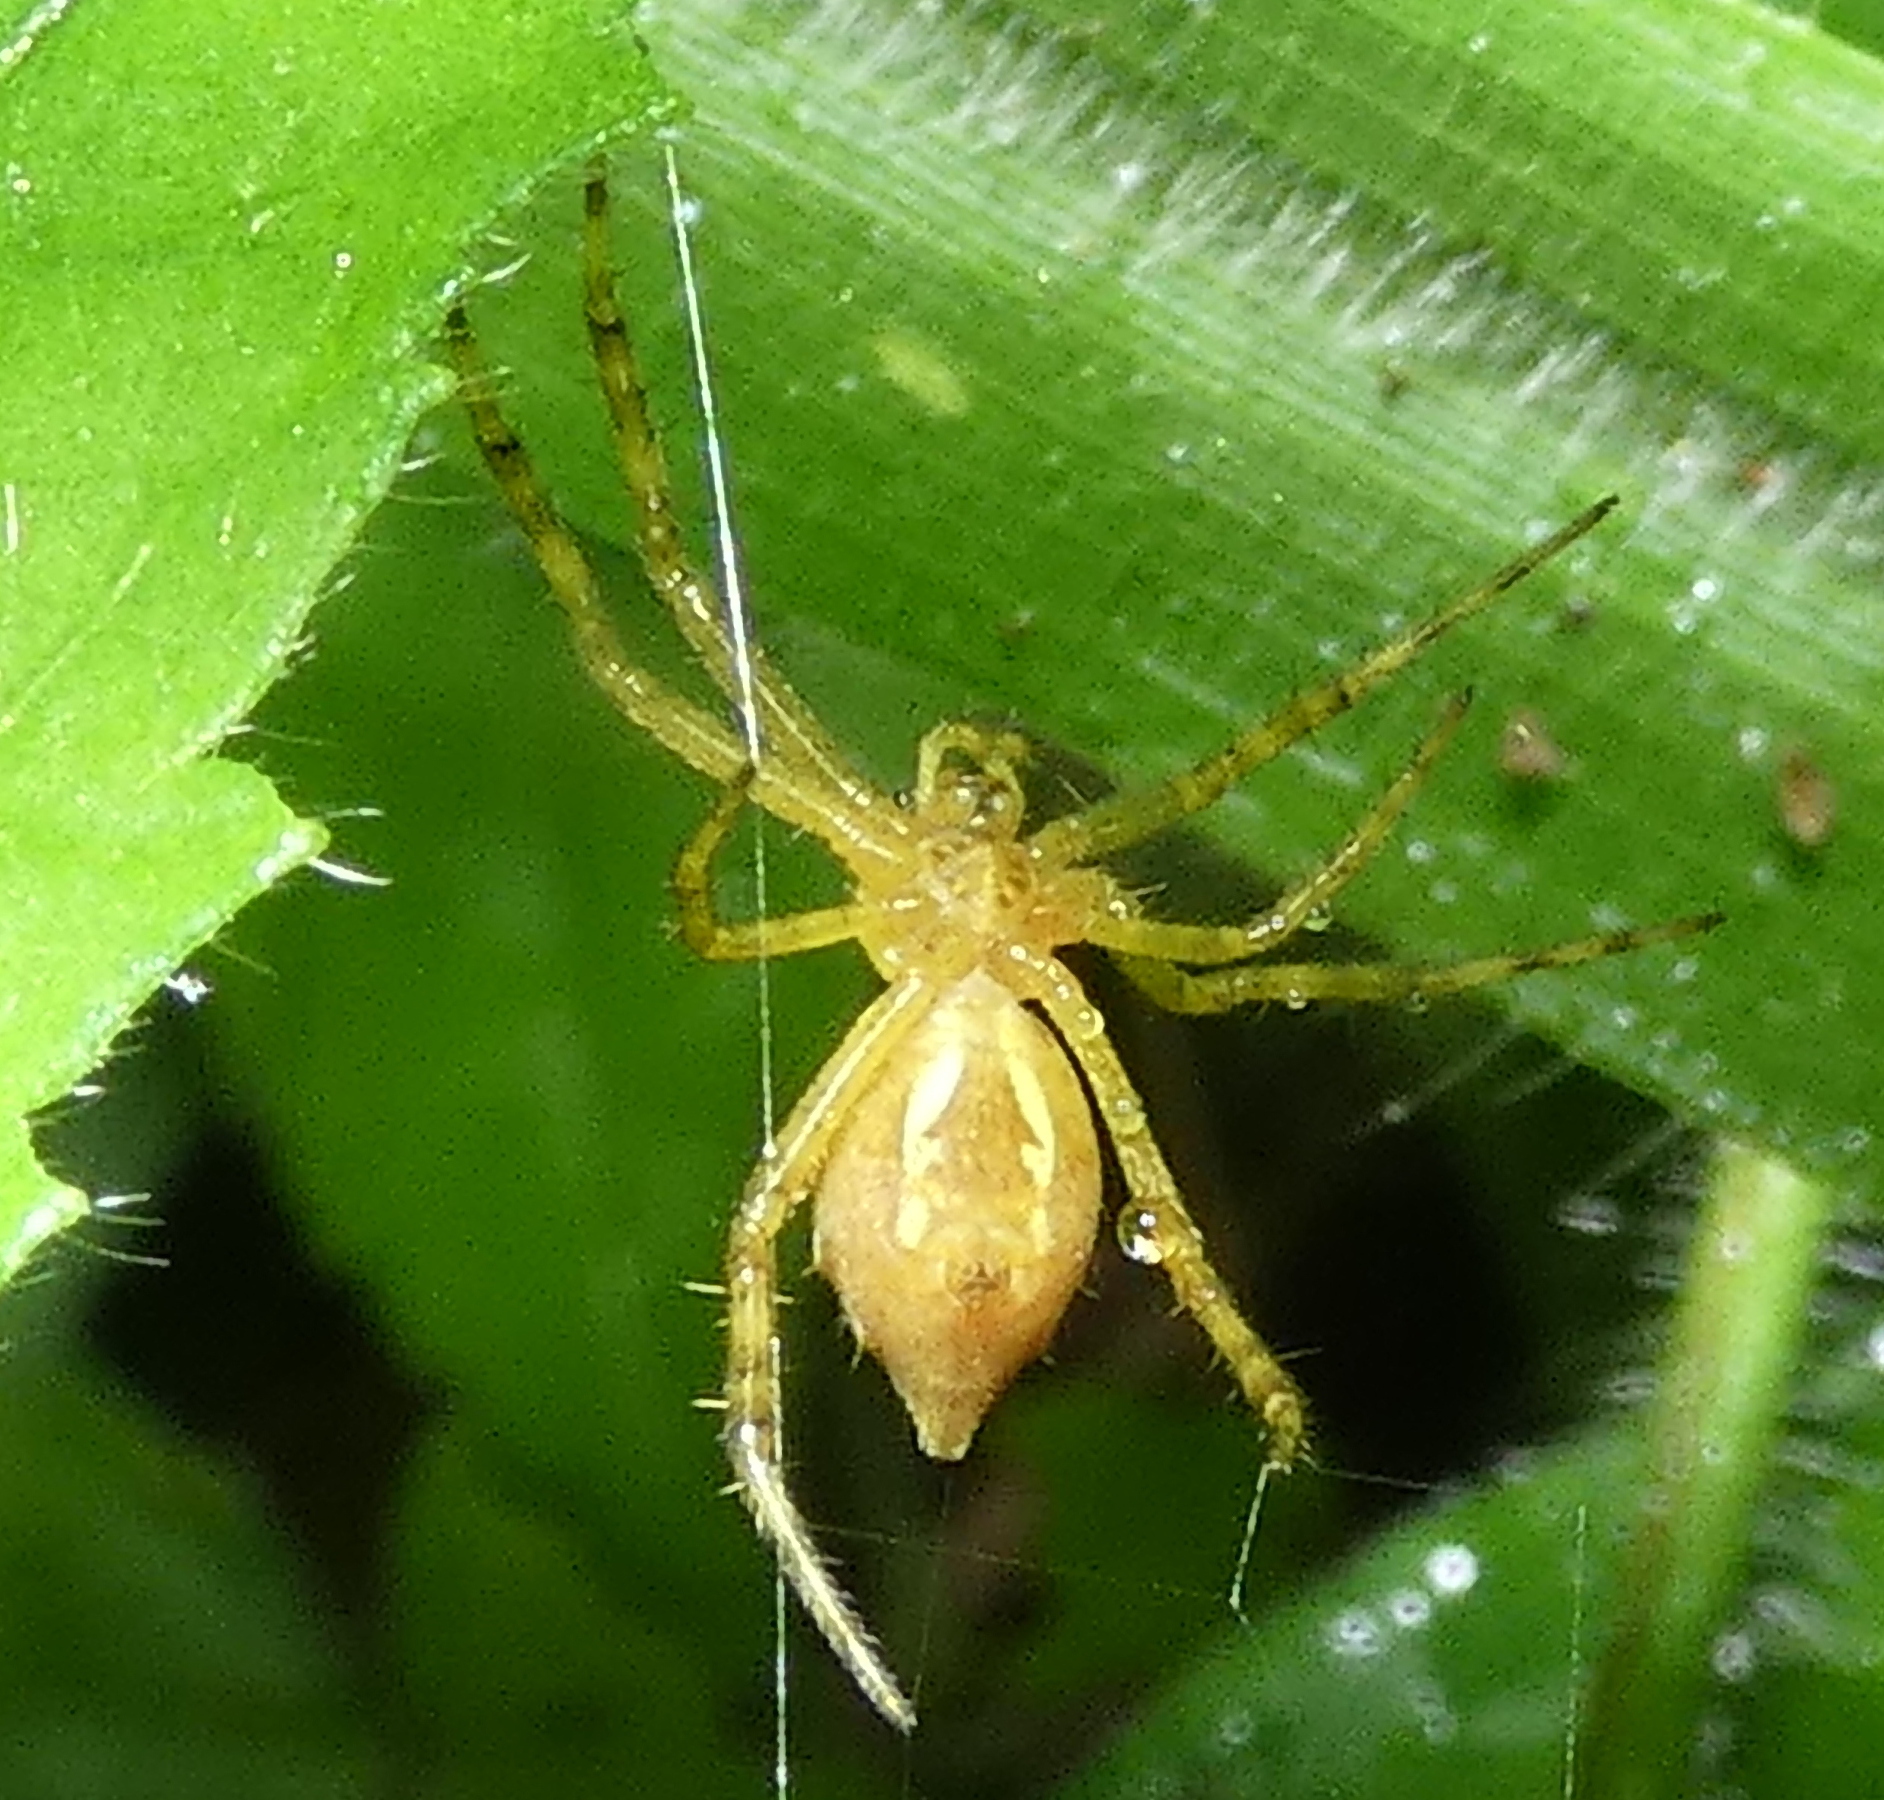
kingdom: Animalia
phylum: Arthropoda
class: Arachnida
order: Araneae
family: Araneidae
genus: Argiope
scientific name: Argiope argentata
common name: Orb weavers
